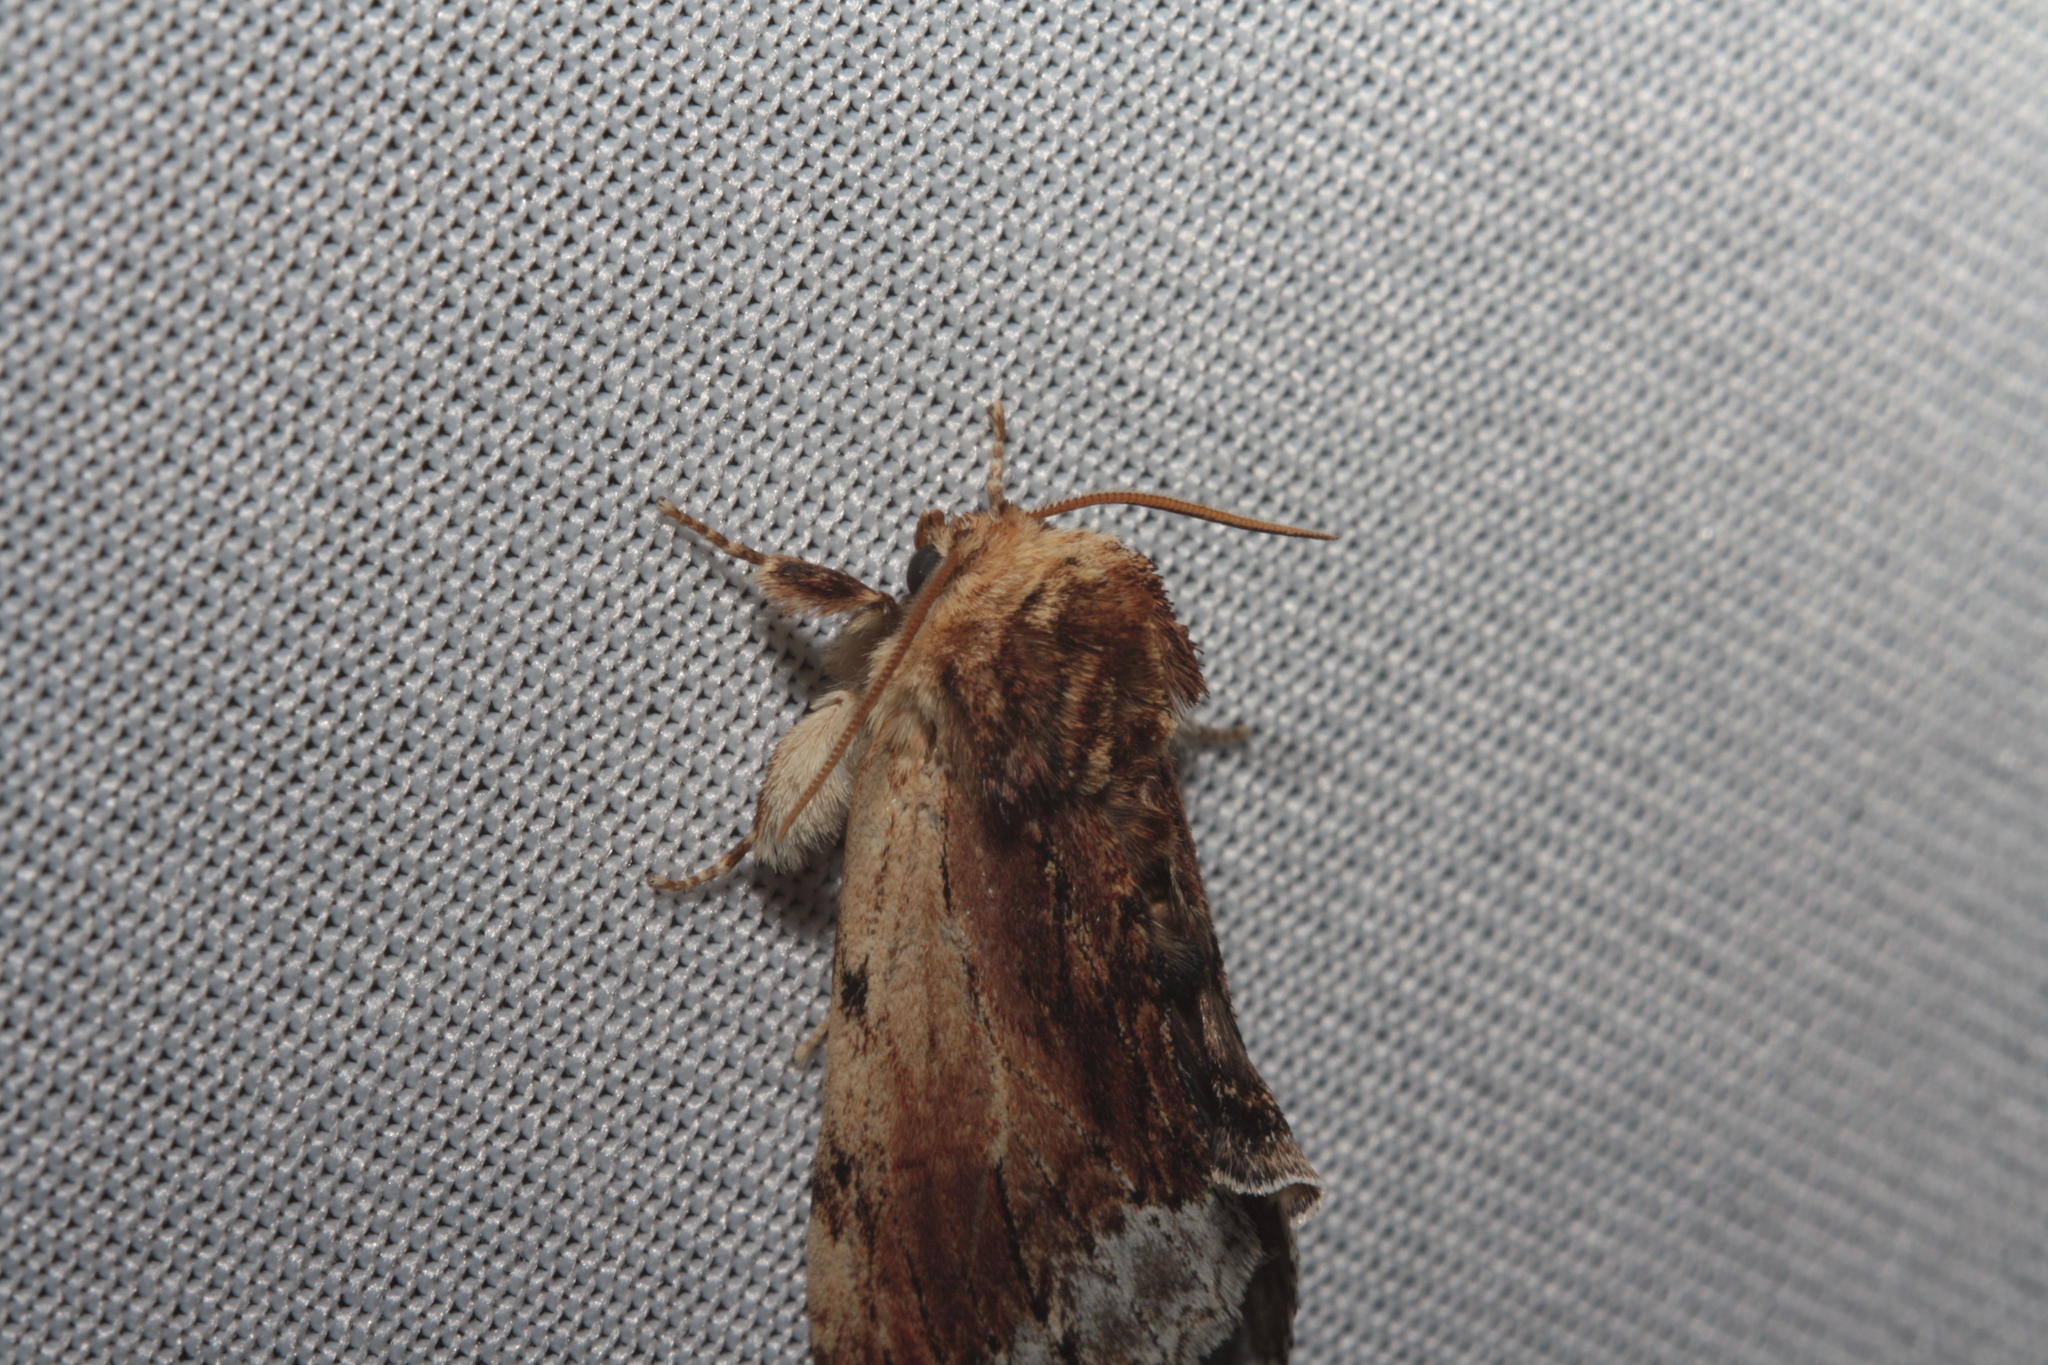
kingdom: Animalia
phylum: Arthropoda
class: Insecta
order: Lepidoptera
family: Notodontidae
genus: Ptilodon
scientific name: Ptilodon cucullina
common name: Maple prominent
